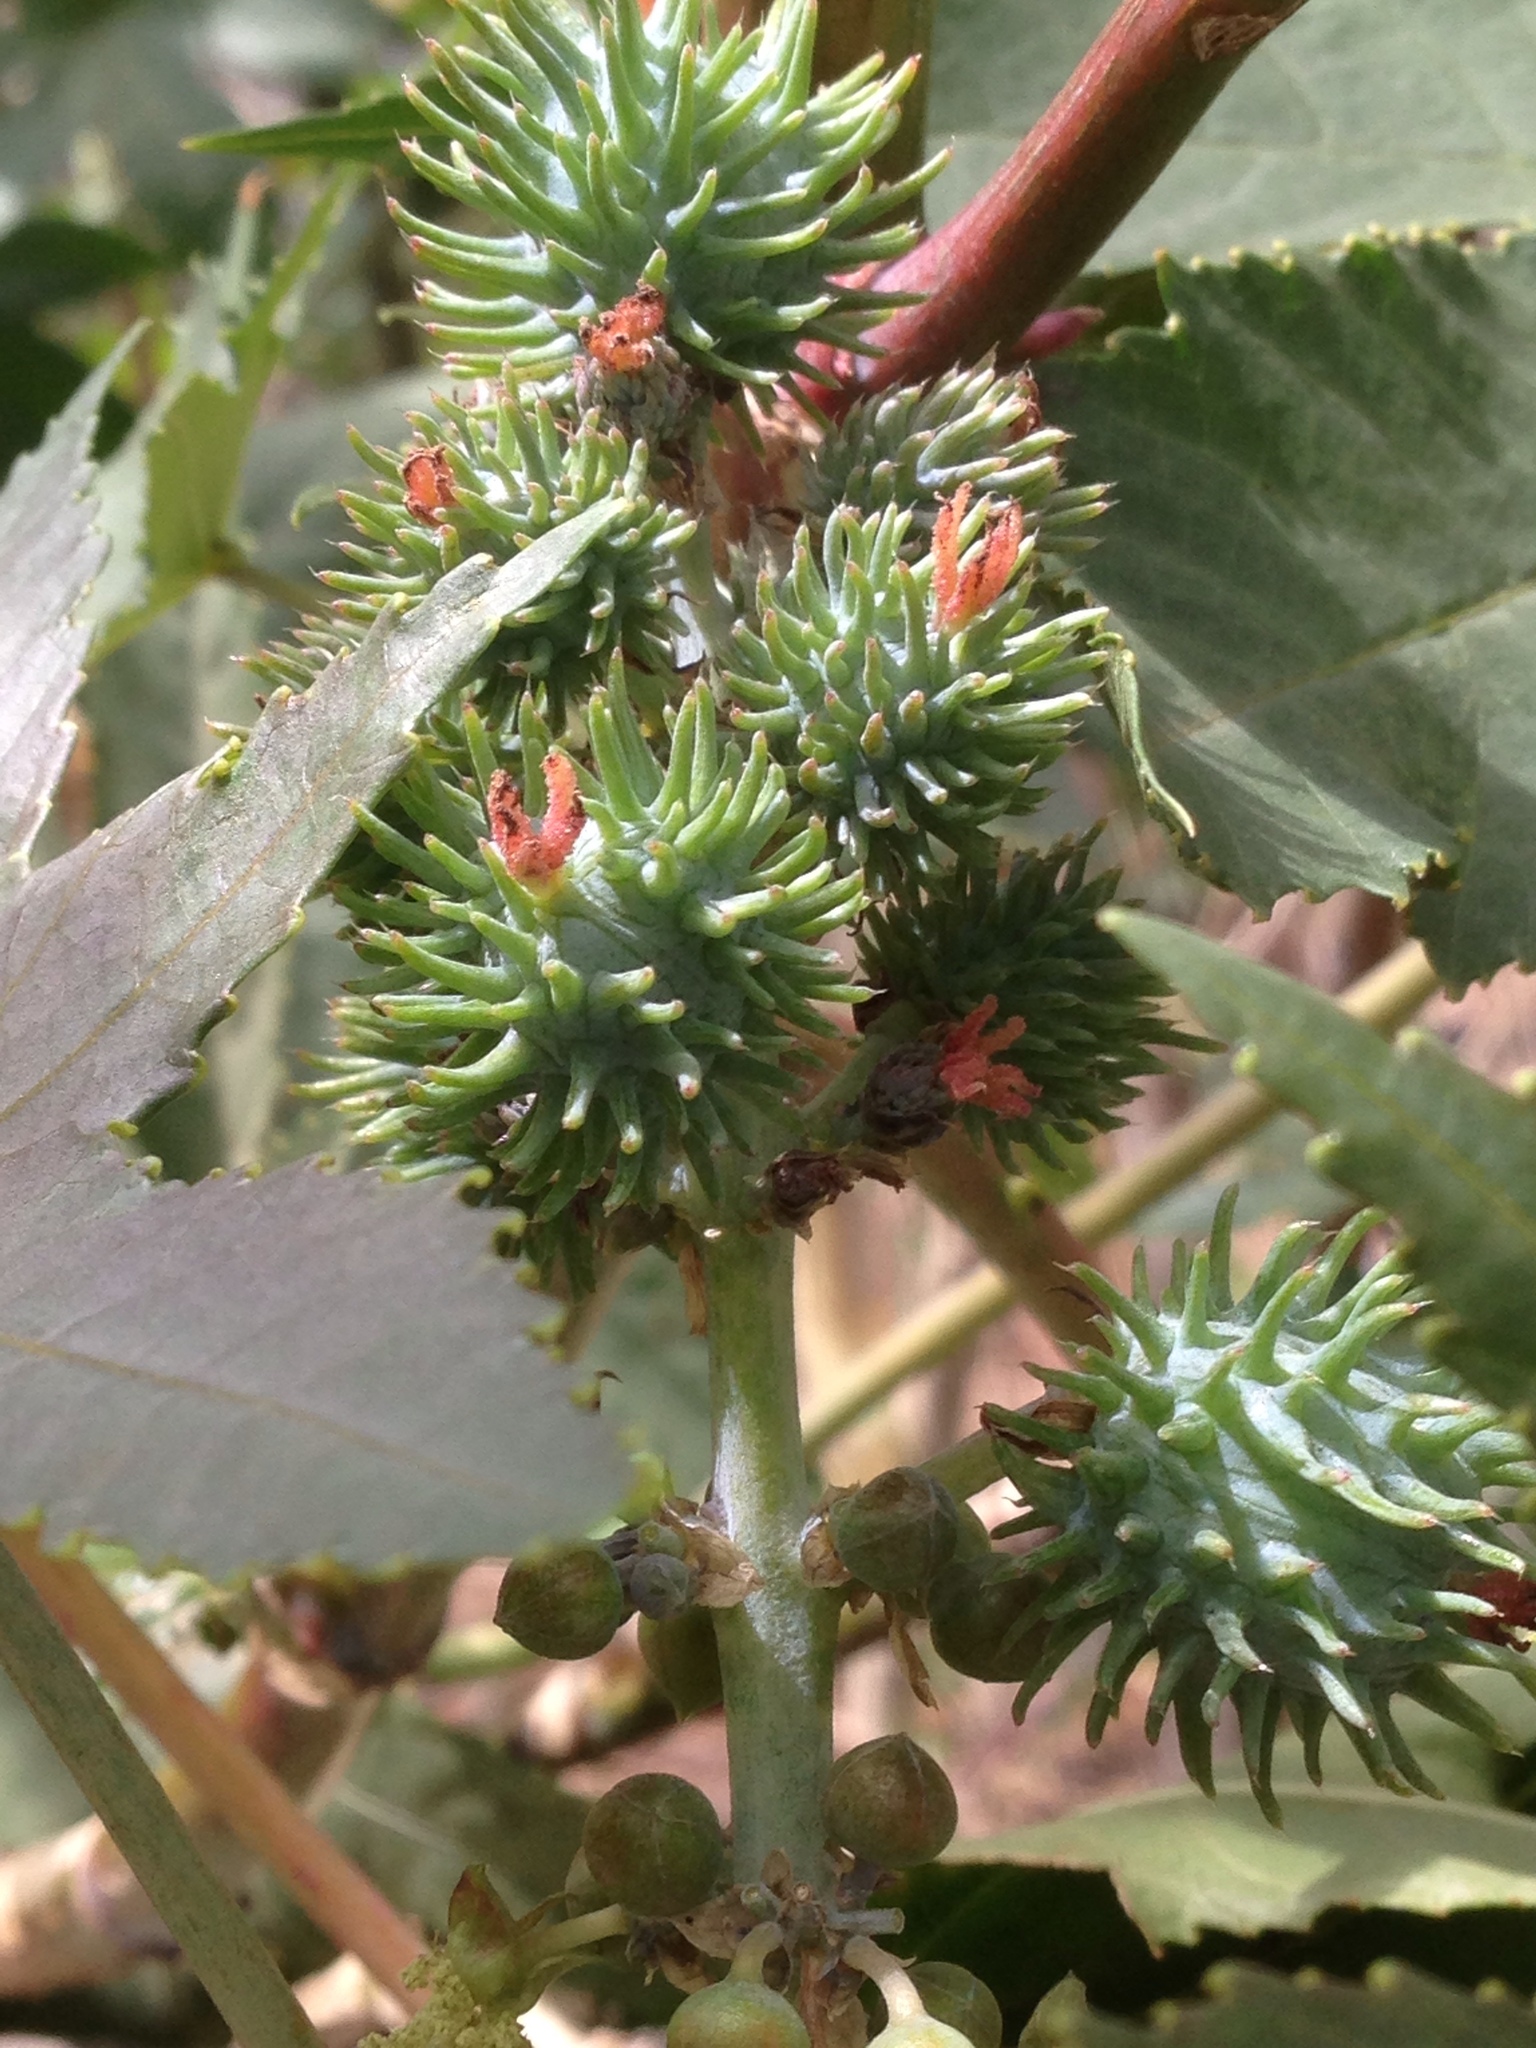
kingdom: Plantae
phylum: Tracheophyta
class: Magnoliopsida
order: Malpighiales
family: Euphorbiaceae
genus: Ricinus
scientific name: Ricinus communis
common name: Castor-oil-plant
